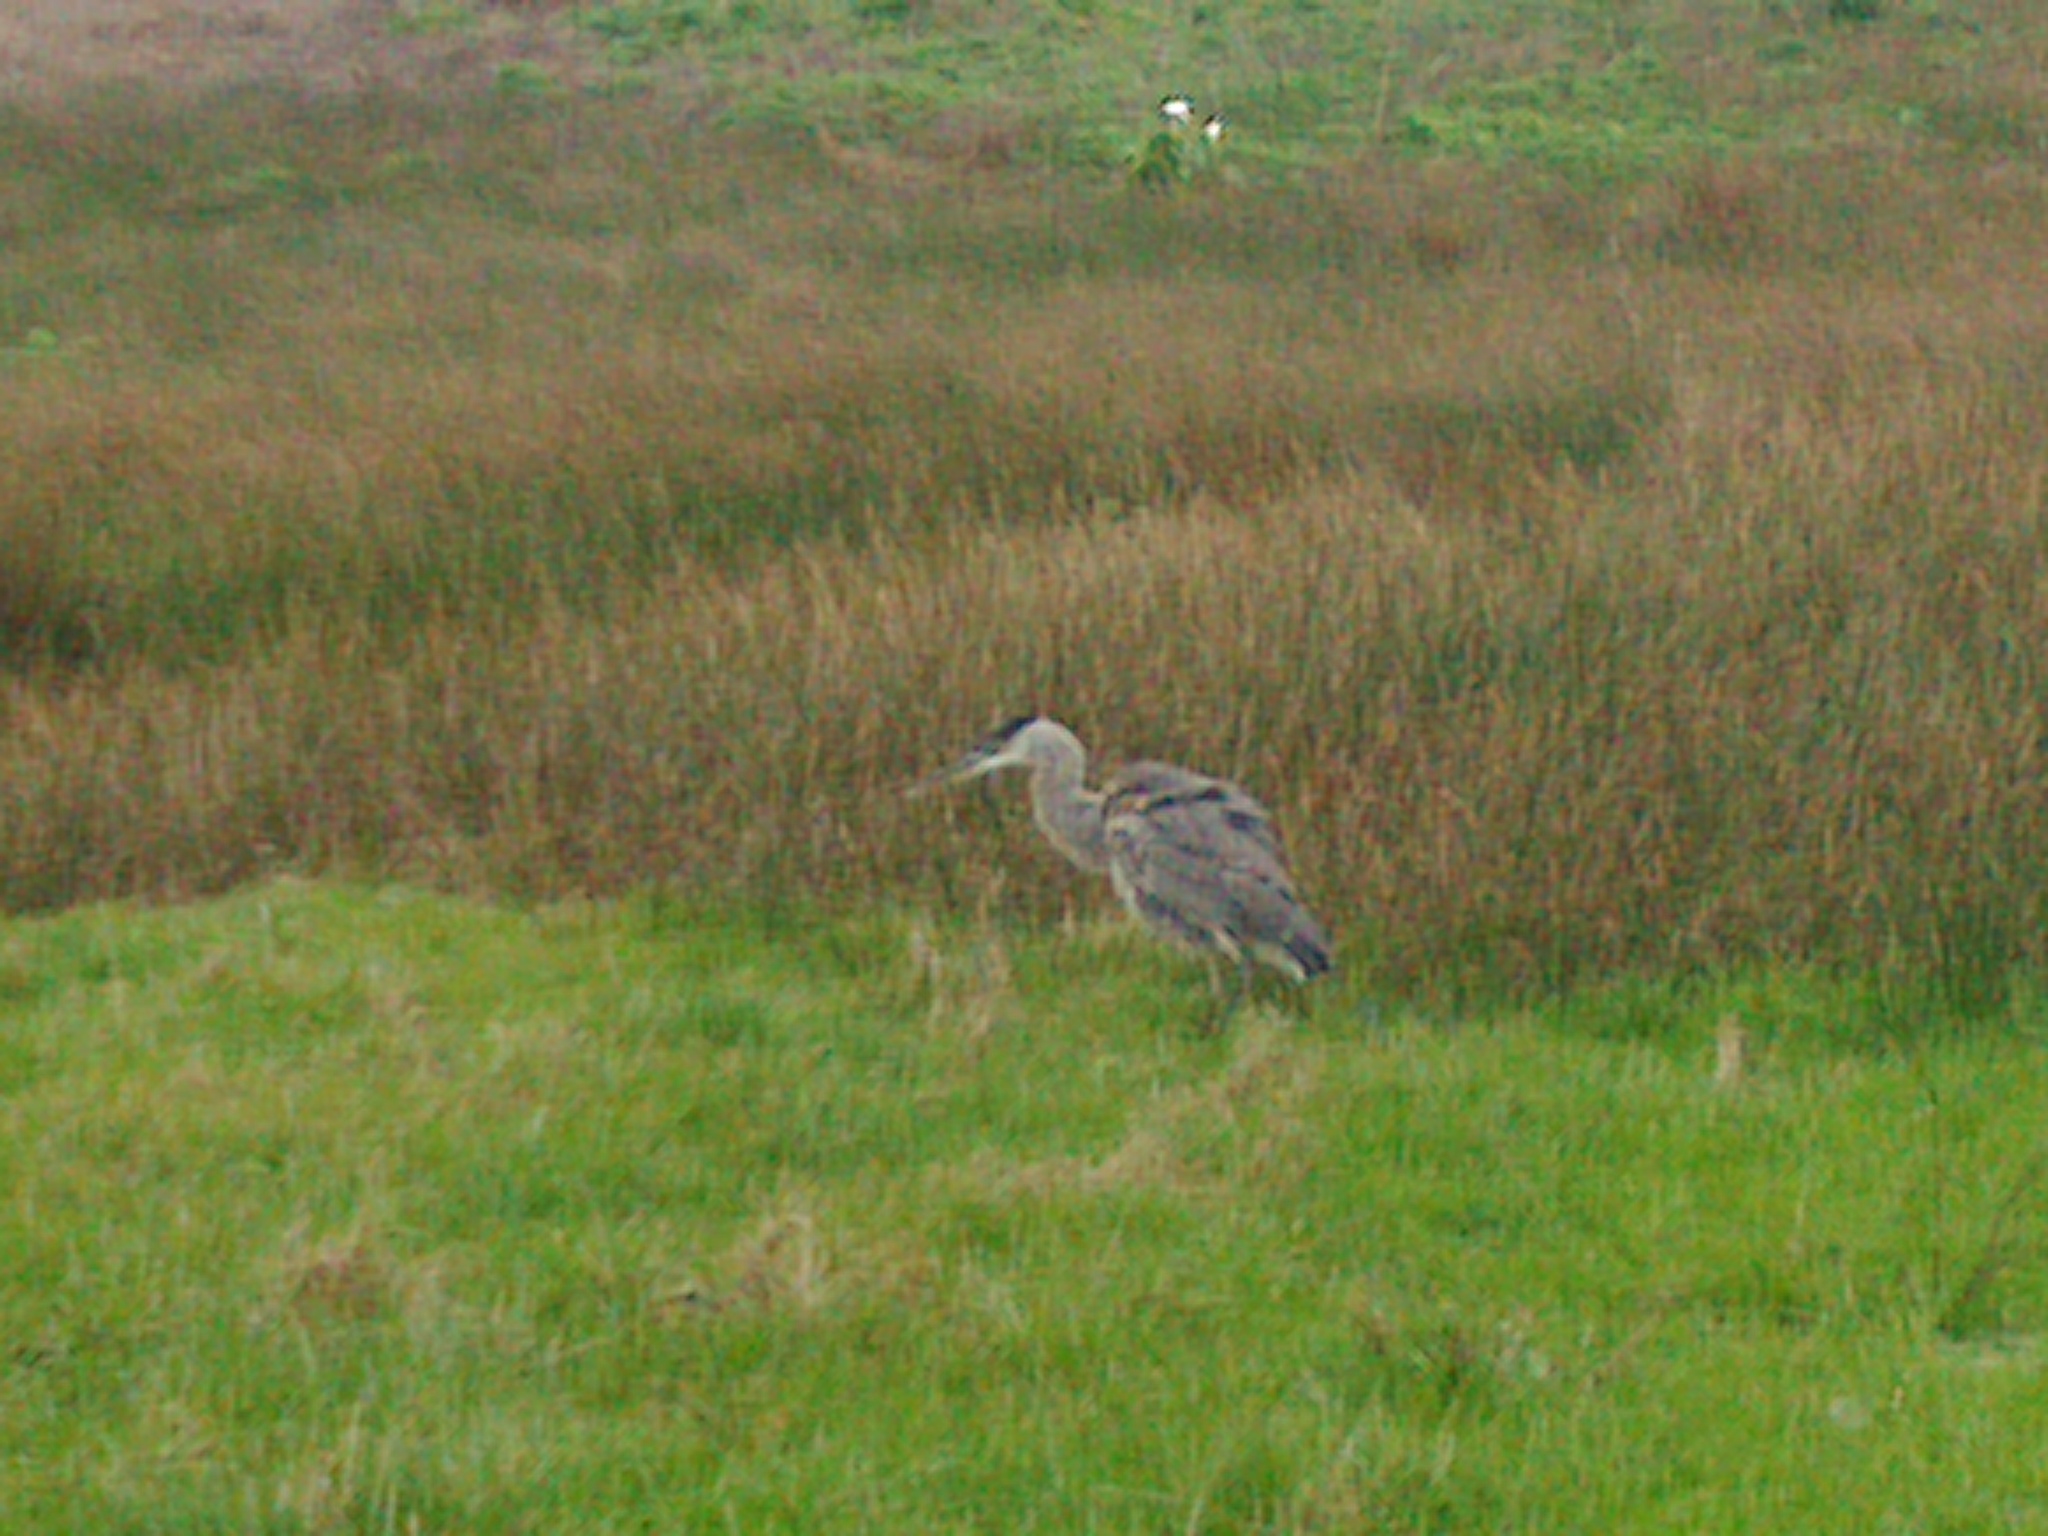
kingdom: Animalia
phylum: Chordata
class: Aves
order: Pelecaniformes
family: Ardeidae
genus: Ardea
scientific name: Ardea herodias
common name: Great blue heron
